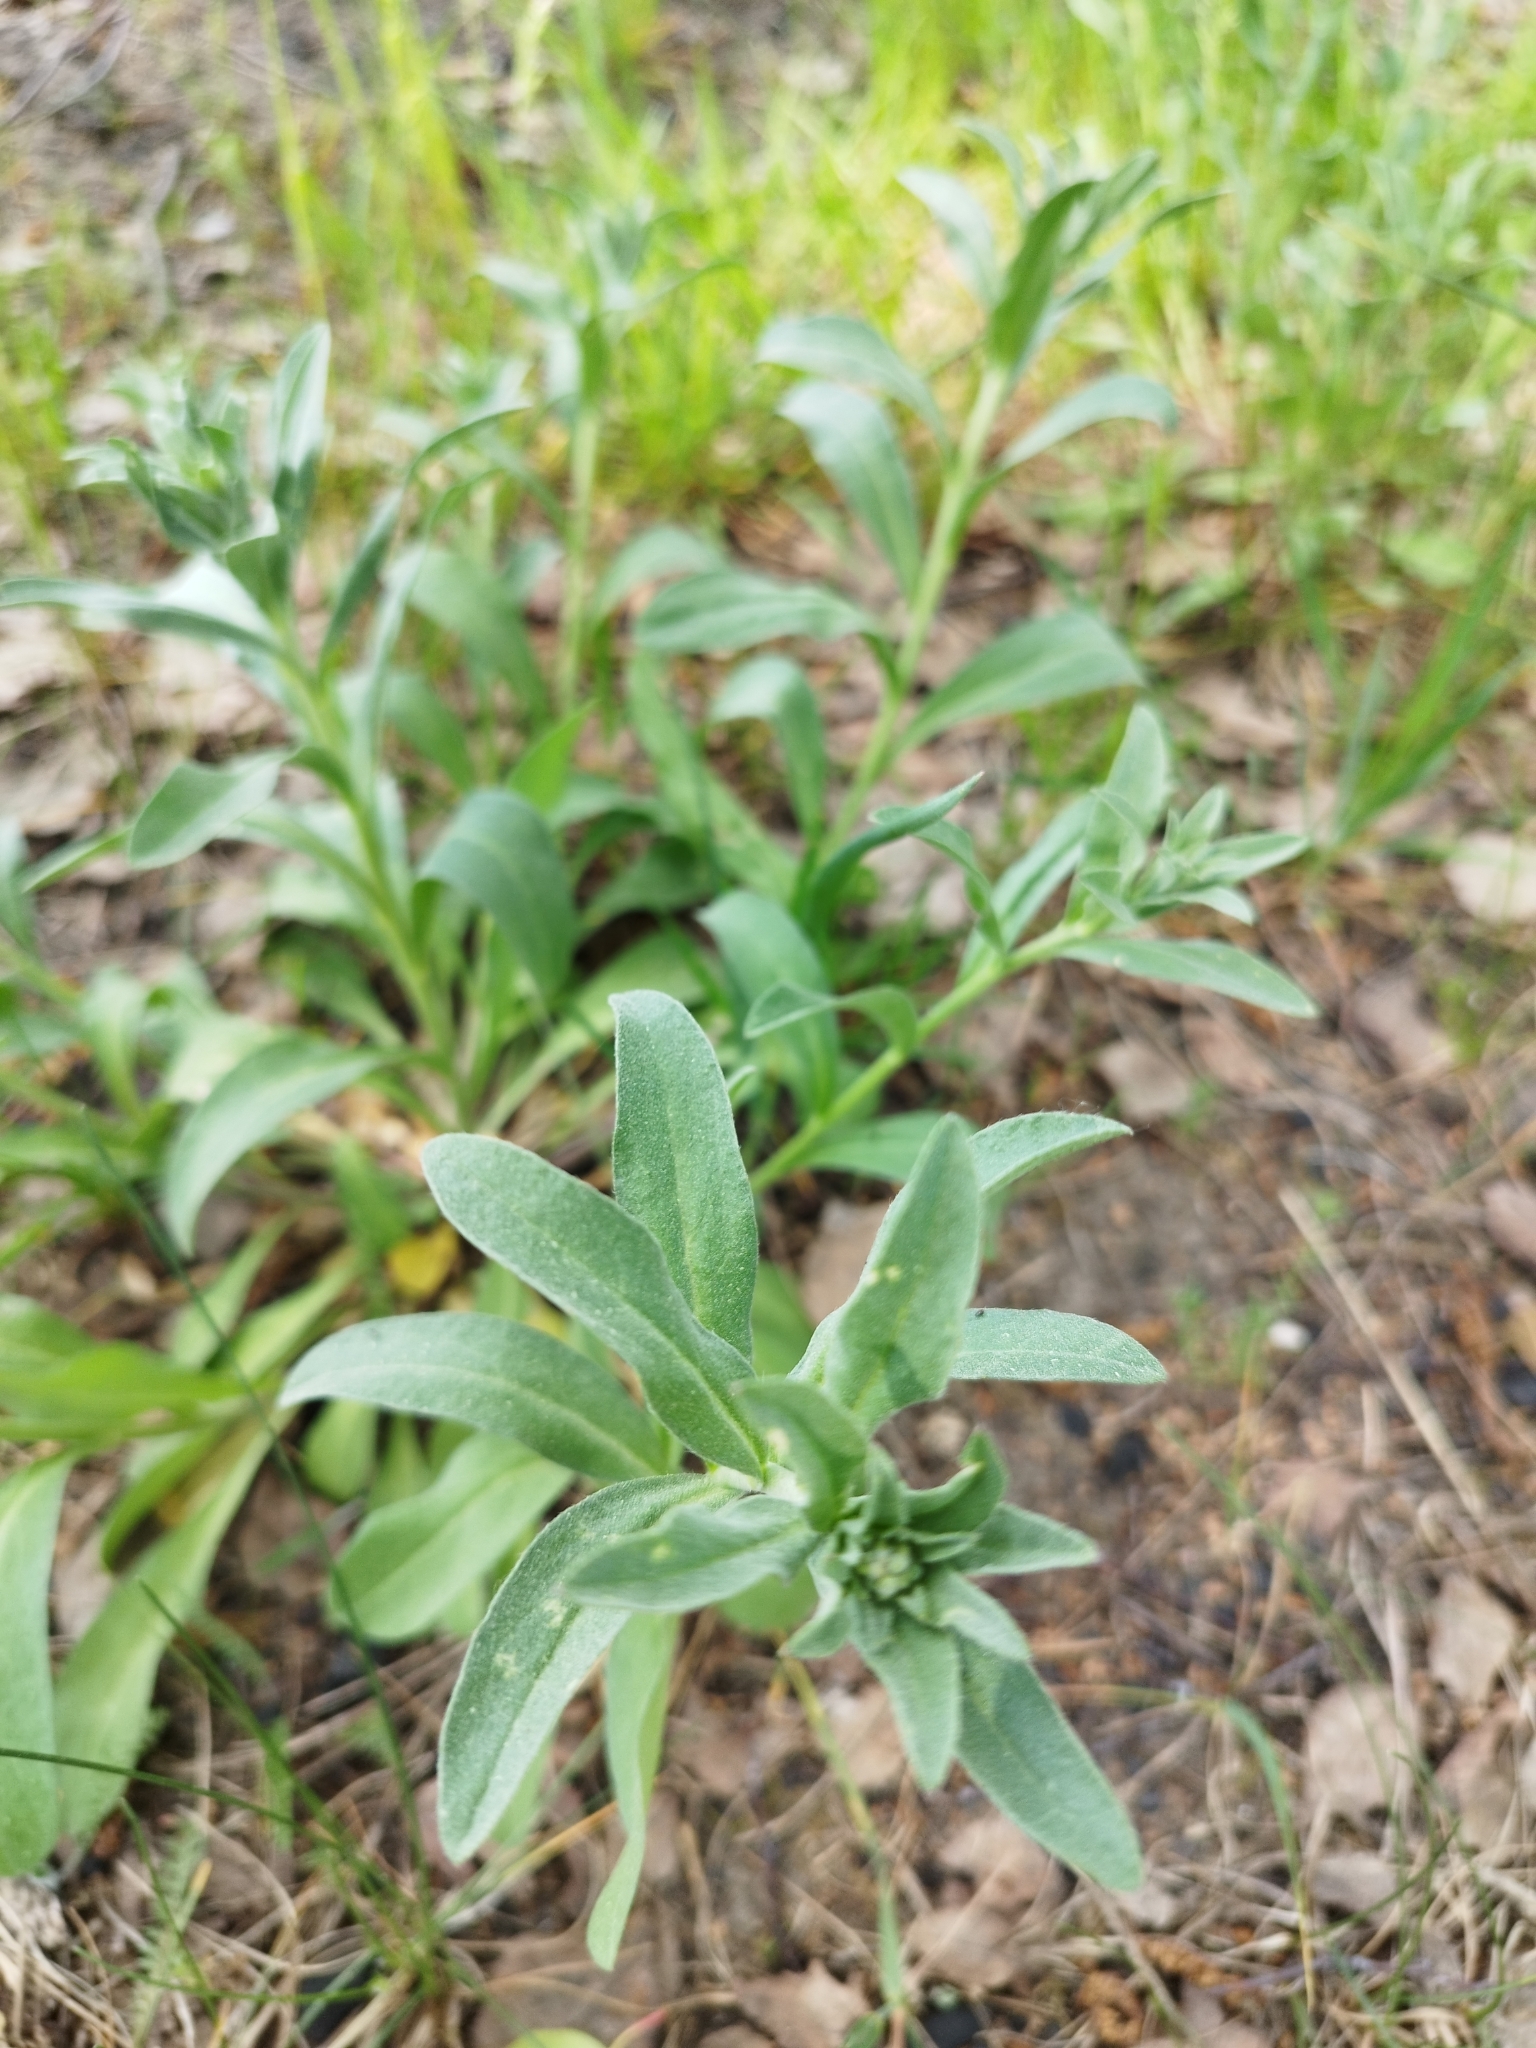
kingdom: Plantae
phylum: Tracheophyta
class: Magnoliopsida
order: Brassicales
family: Brassicaceae
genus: Berteroa
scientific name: Berteroa incana
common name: Hoary alison
